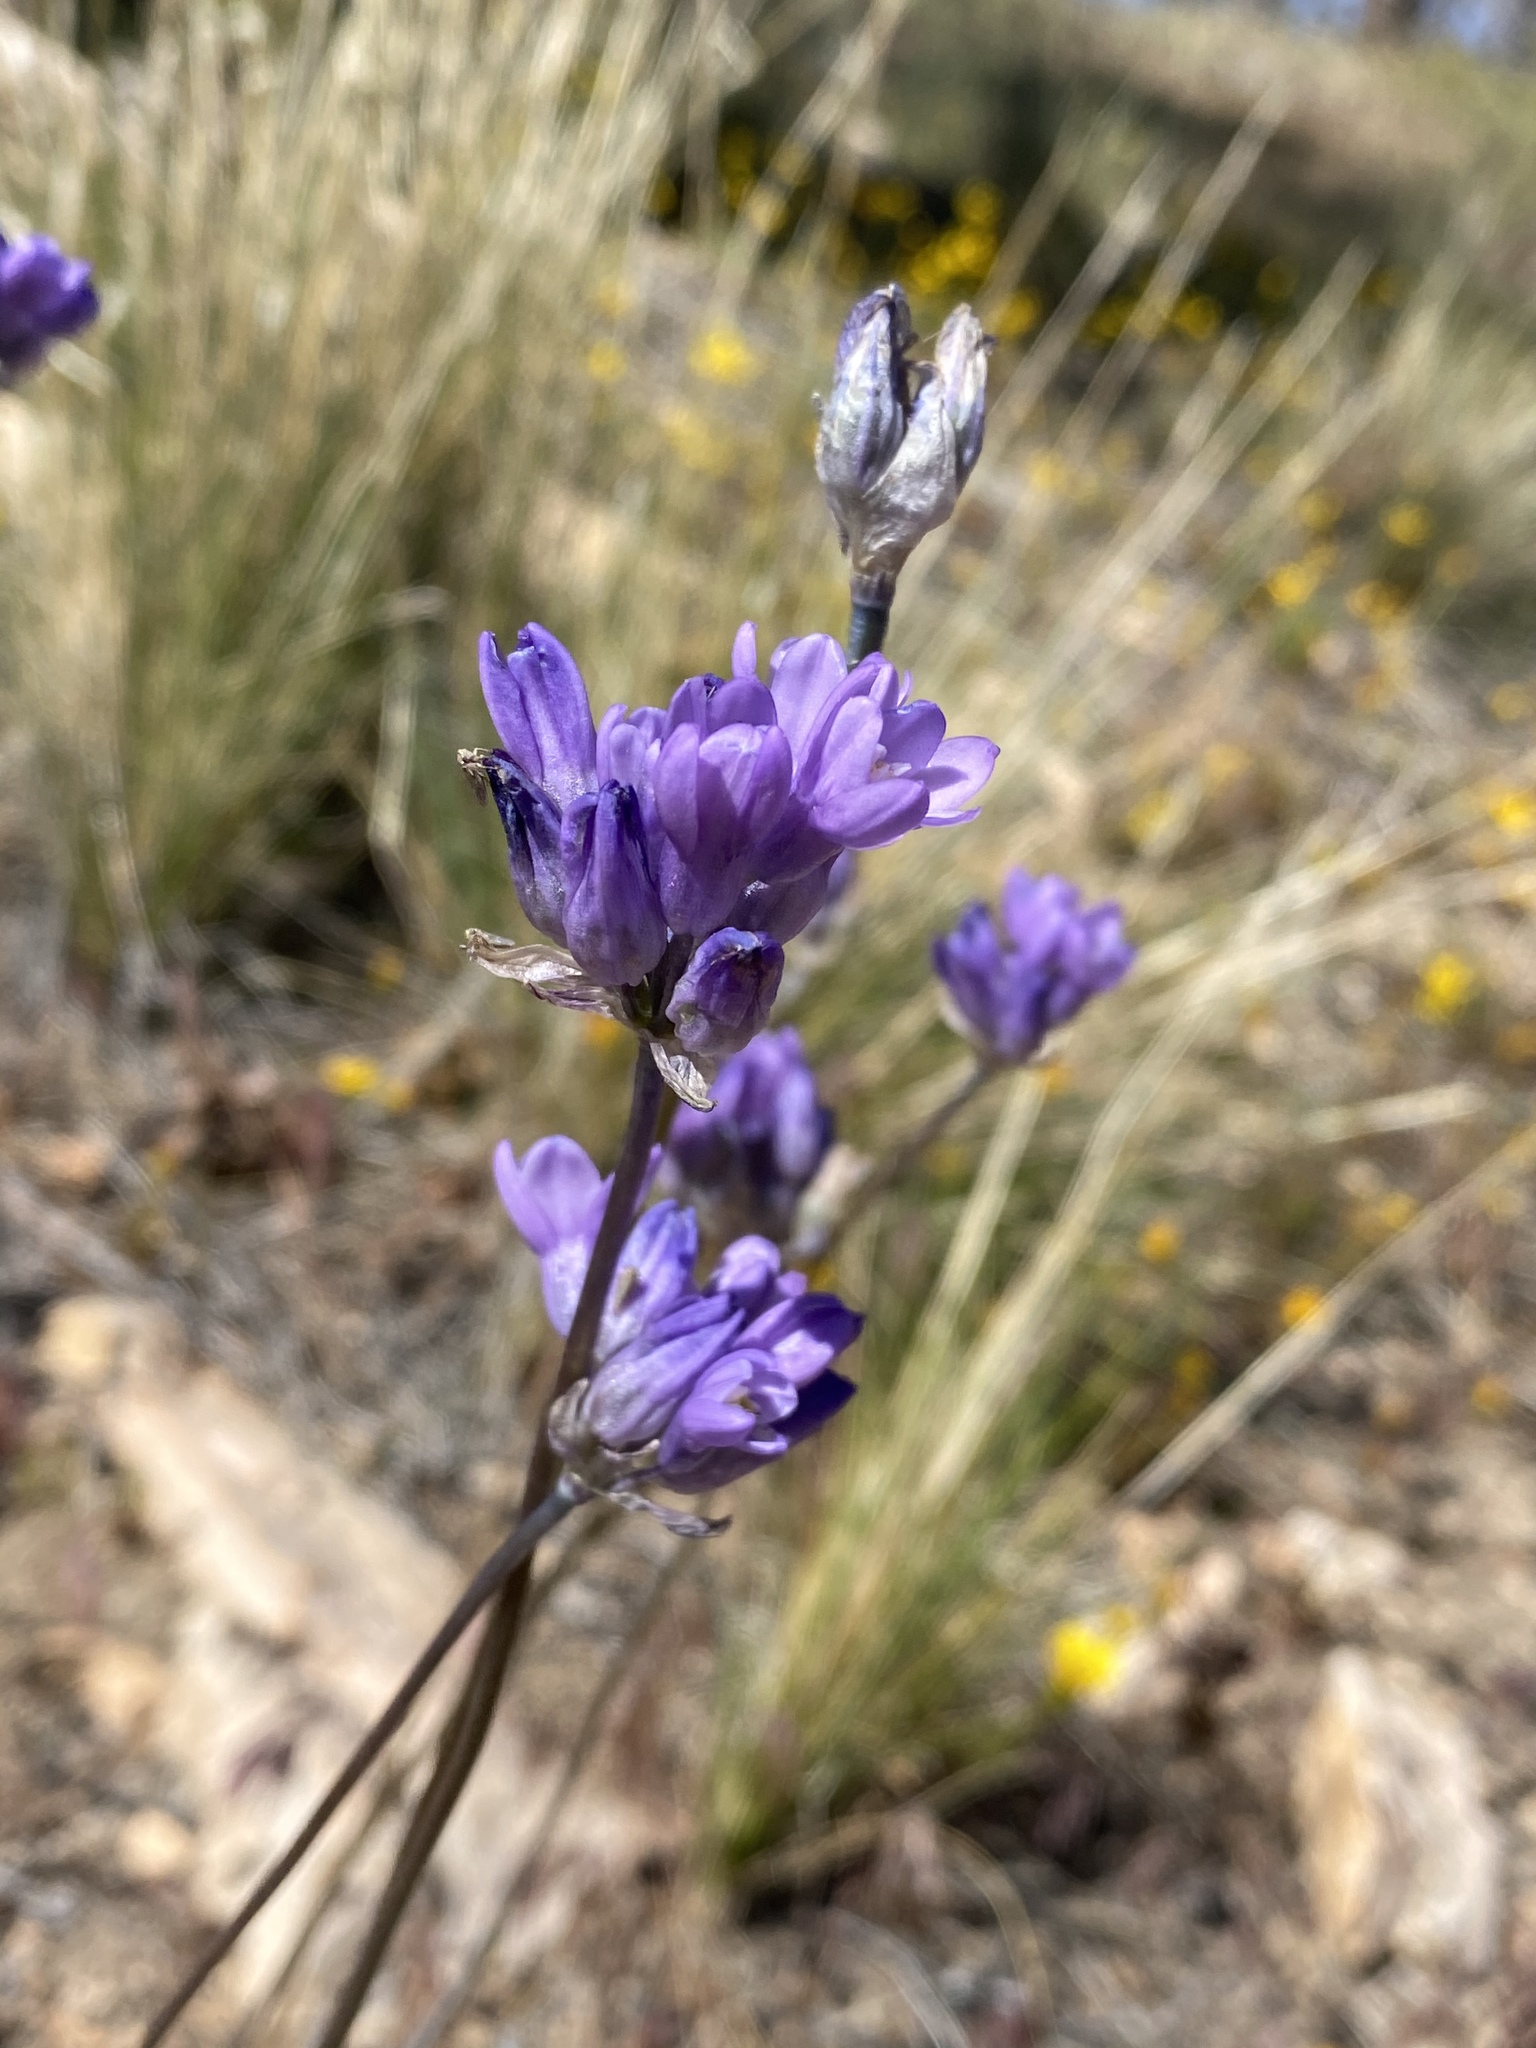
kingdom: Plantae
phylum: Tracheophyta
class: Liliopsida
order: Asparagales
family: Asparagaceae
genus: Dipterostemon
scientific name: Dipterostemon capitatus
